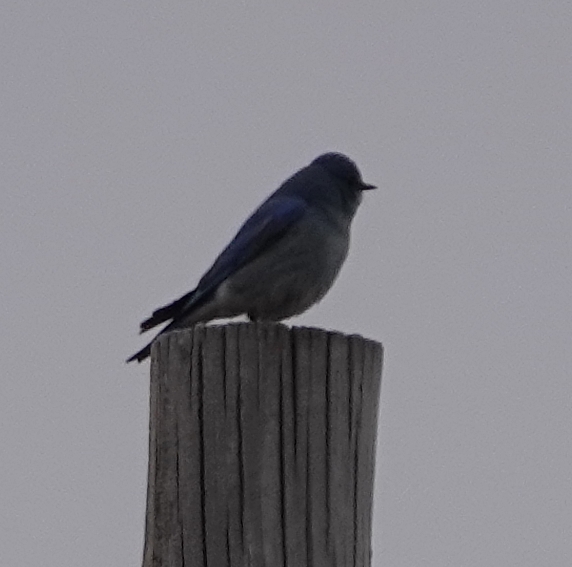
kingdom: Animalia
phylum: Chordata
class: Aves
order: Passeriformes
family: Turdidae
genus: Sialia
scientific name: Sialia currucoides
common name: Mountain bluebird
